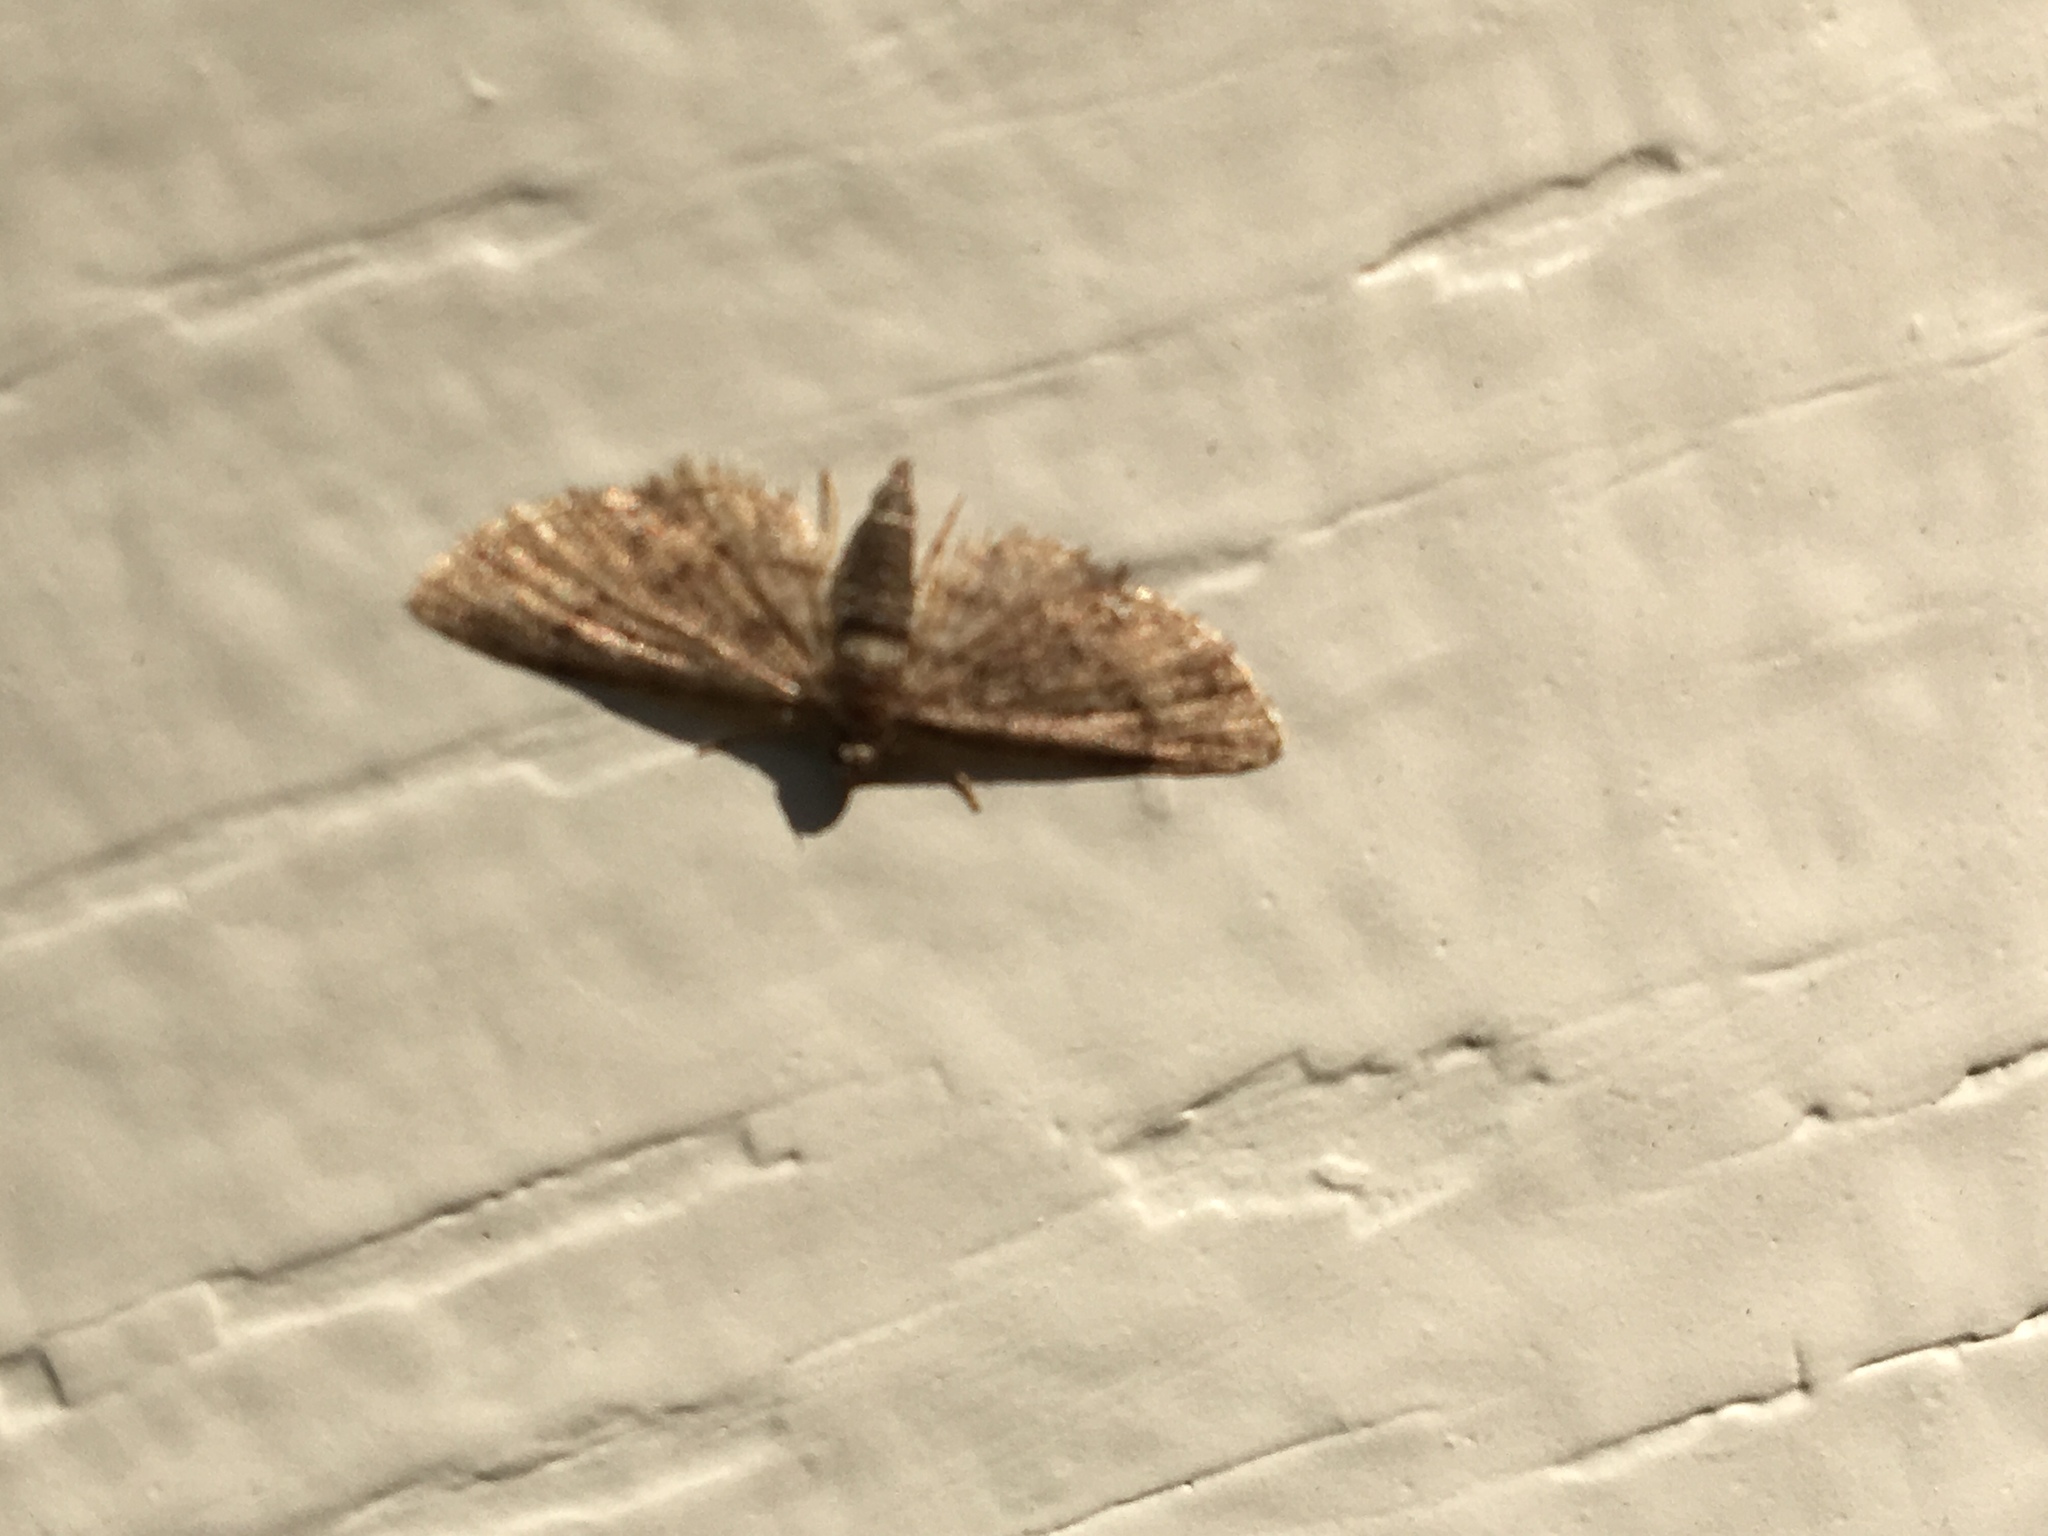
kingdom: Animalia
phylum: Arthropoda
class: Insecta
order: Lepidoptera
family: Geometridae
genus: Eupithecia
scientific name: Eupithecia
